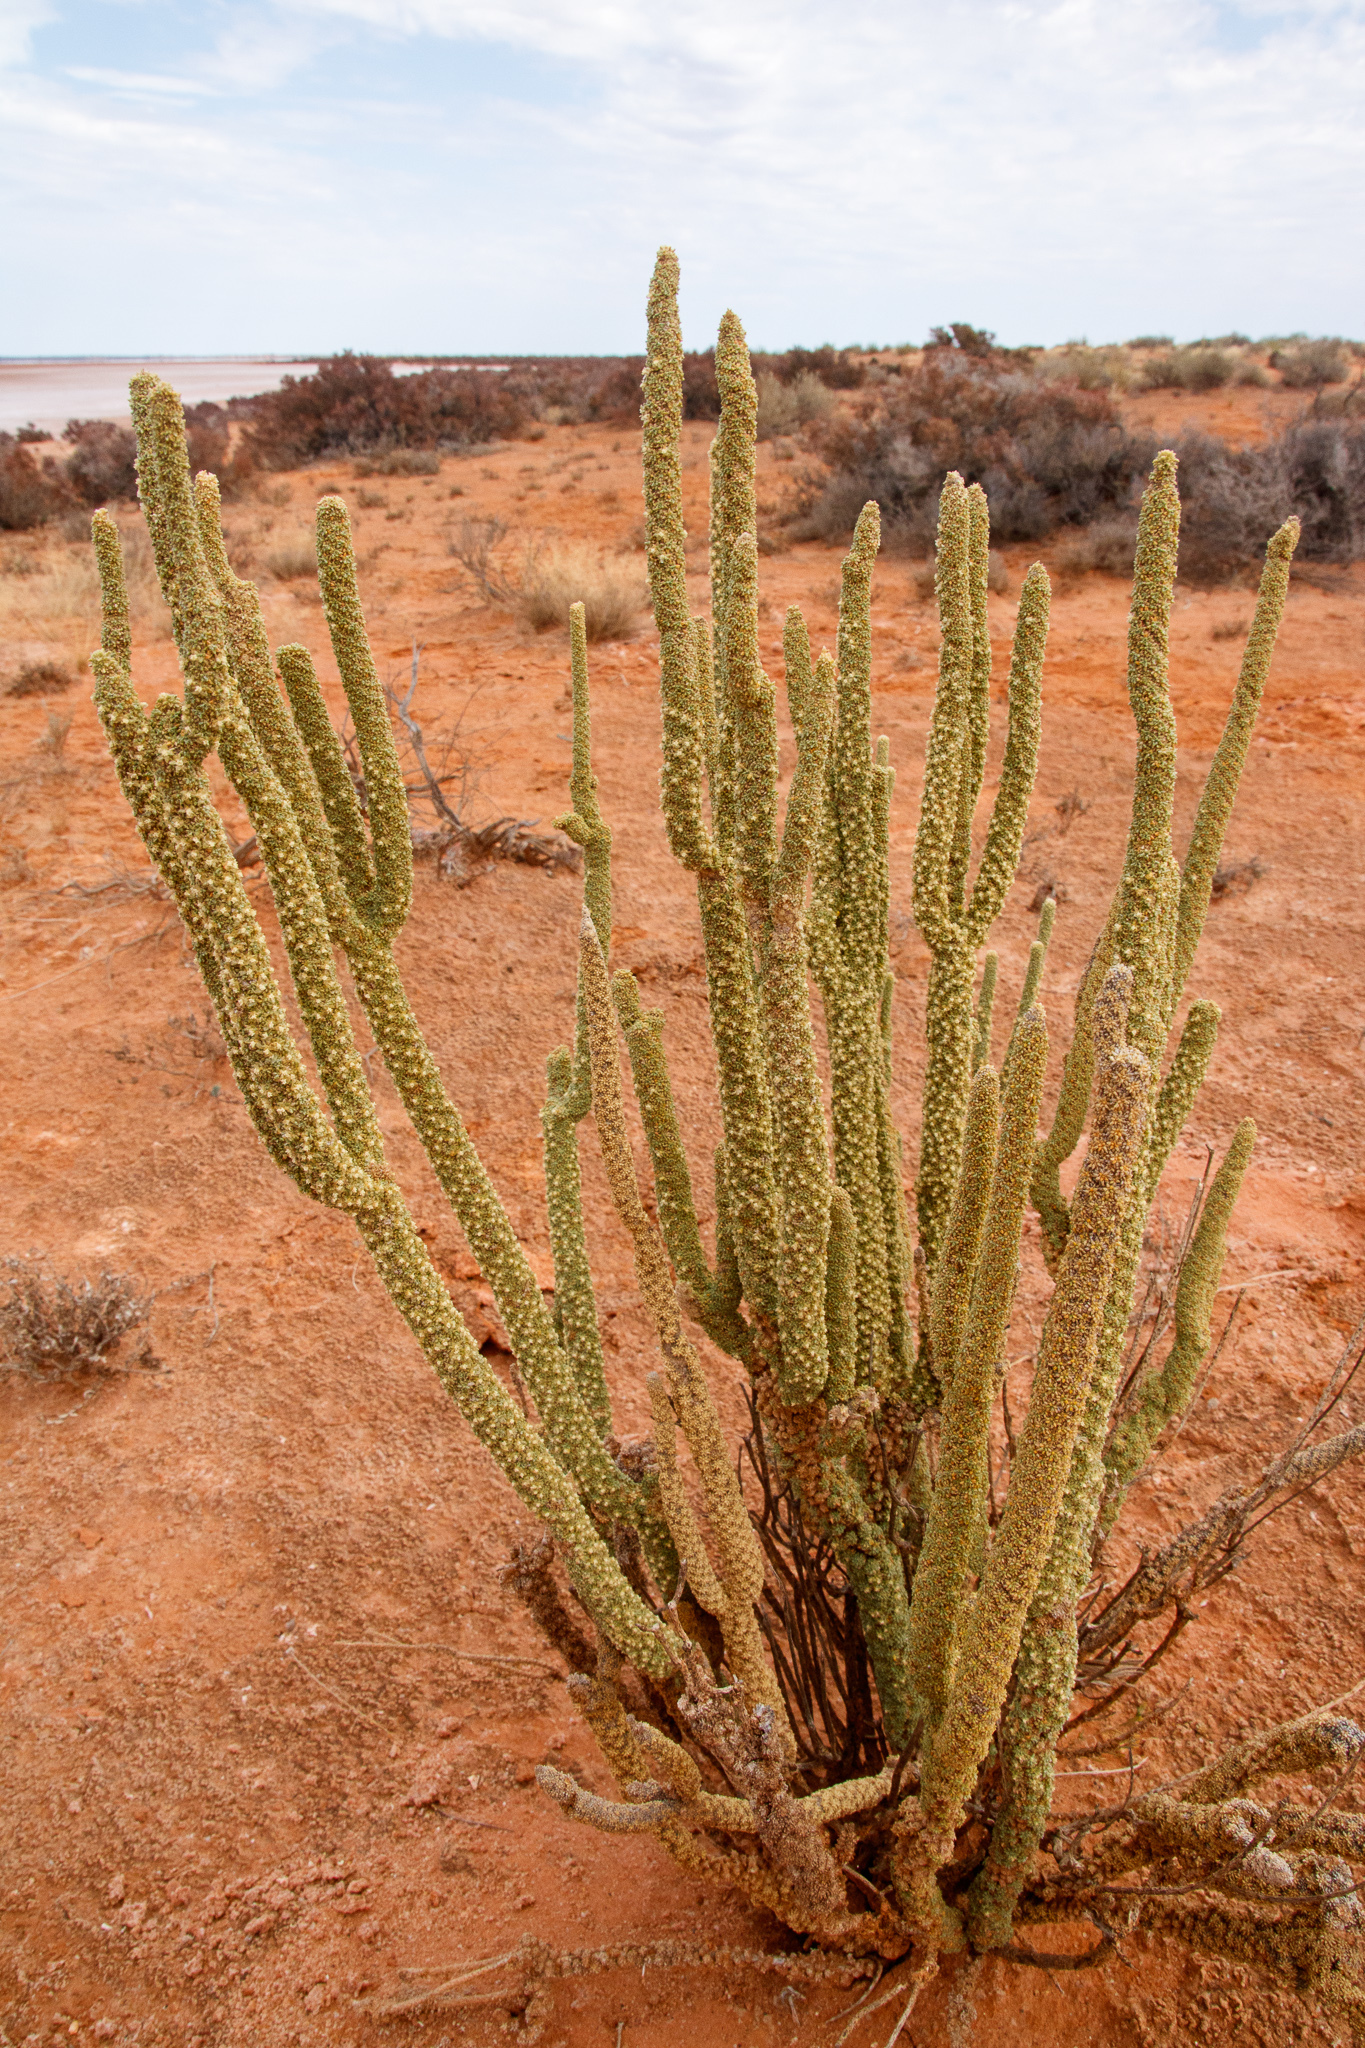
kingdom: Plantae
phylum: Tracheophyta
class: Magnoliopsida
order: Malvales
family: Malvaceae
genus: Lawrencia
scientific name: Lawrencia helmsii
